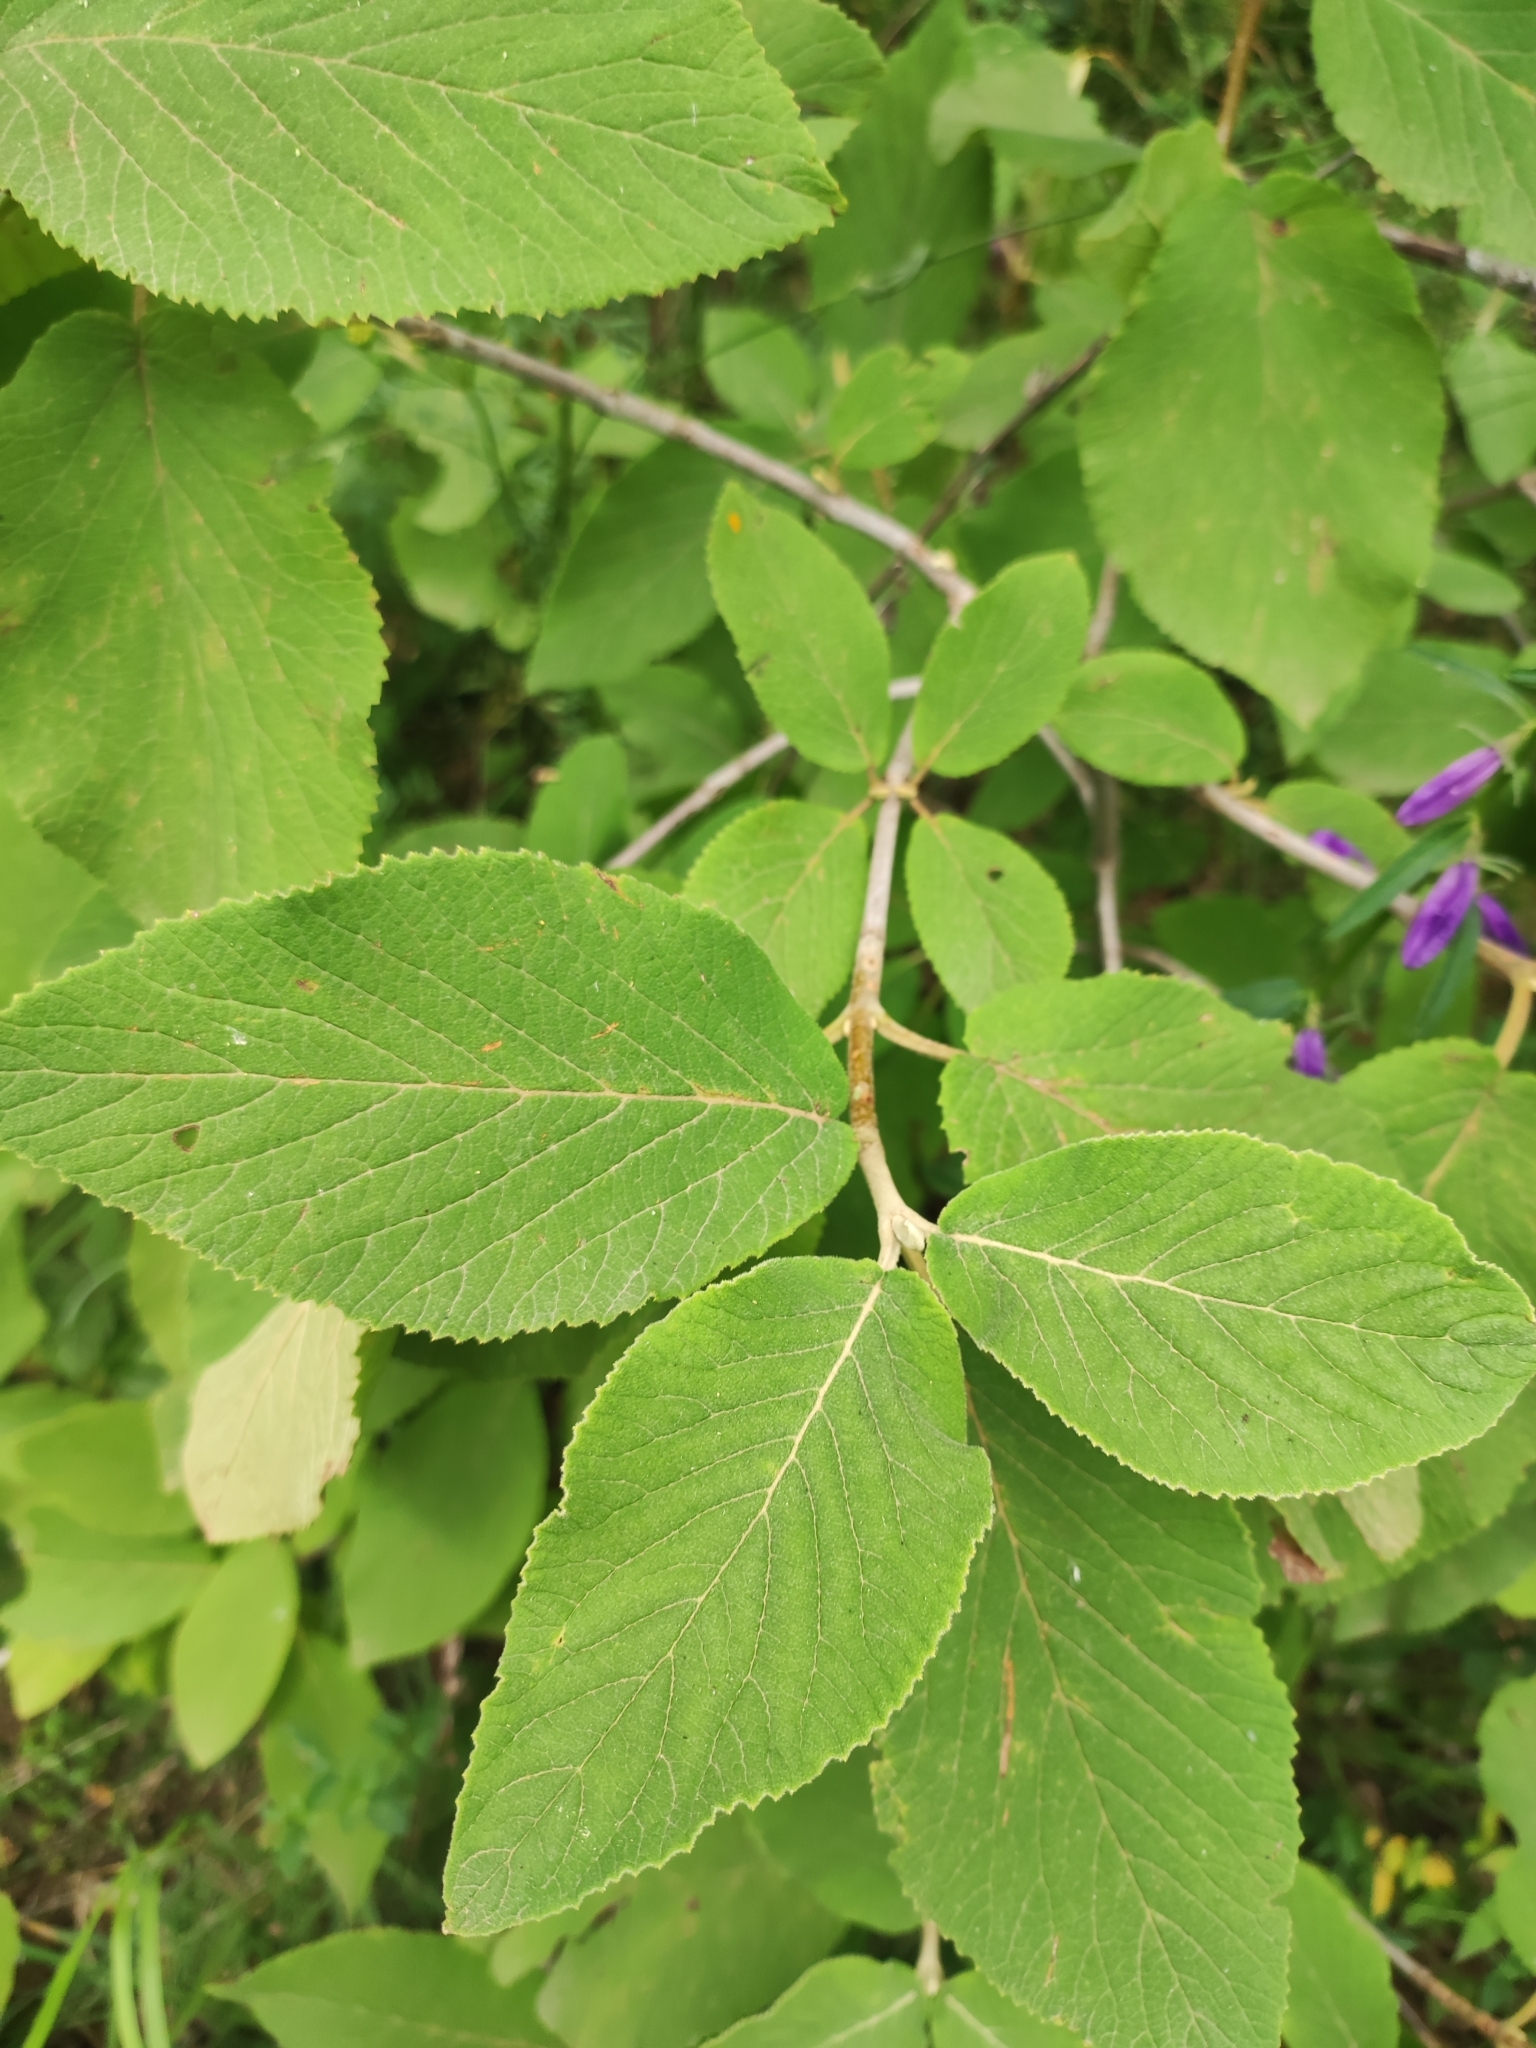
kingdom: Plantae
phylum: Tracheophyta
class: Magnoliopsida
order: Dipsacales
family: Viburnaceae
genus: Viburnum
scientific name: Viburnum lantana
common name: Wayfaring tree
